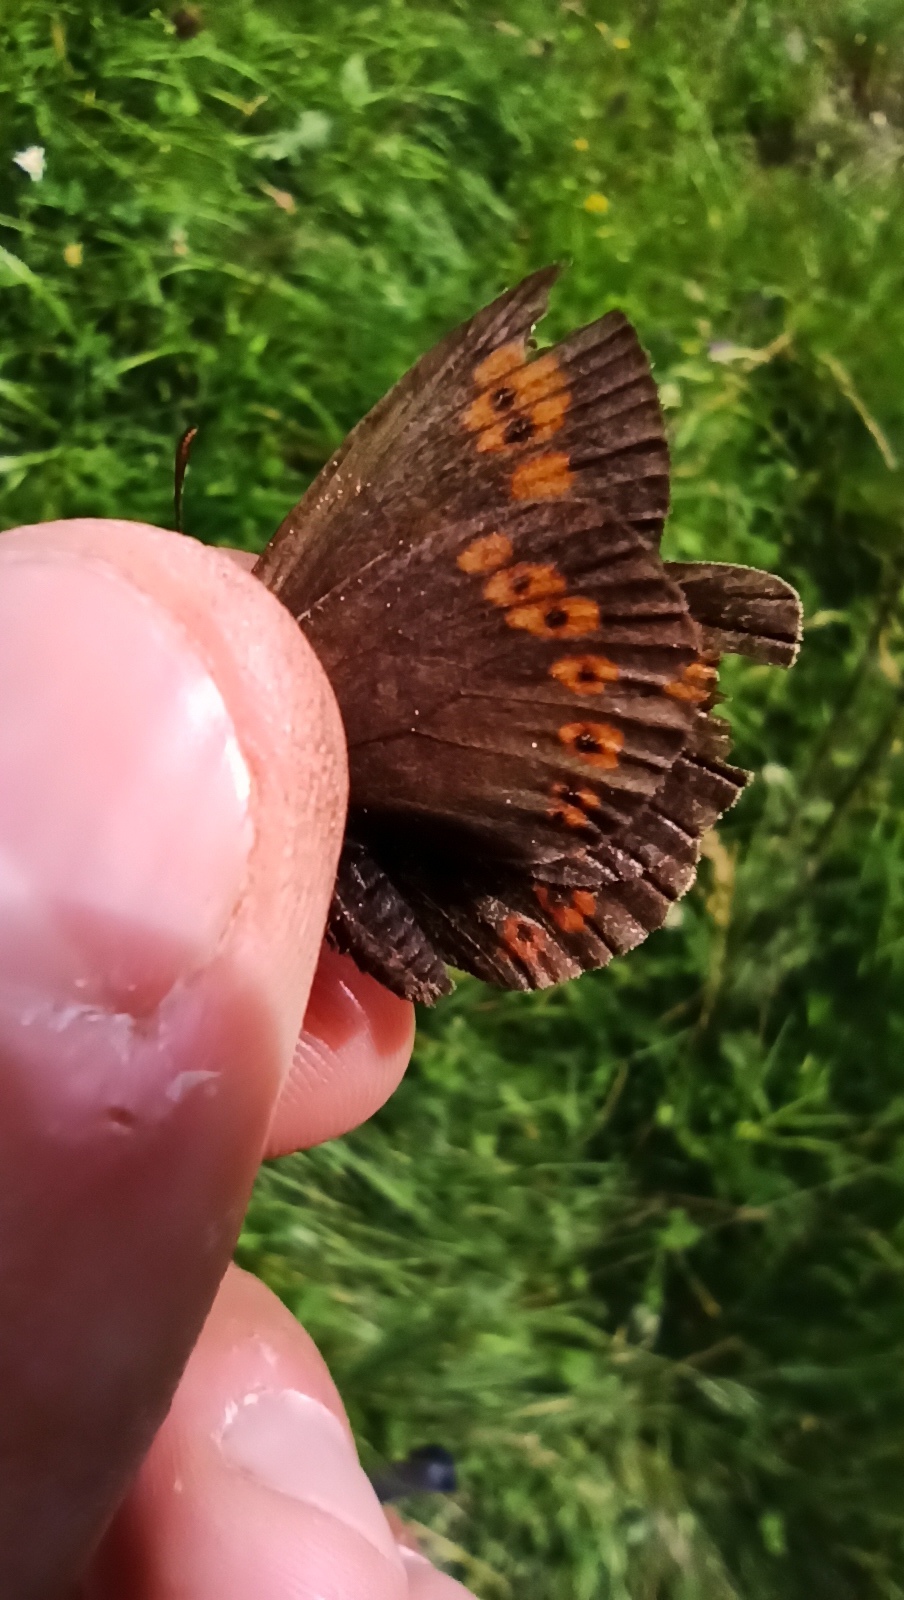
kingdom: Animalia
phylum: Arthropoda
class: Insecta
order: Lepidoptera
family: Nymphalidae
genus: Erebia
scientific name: Erebia alberganus
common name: Almond-eyed ringlet
